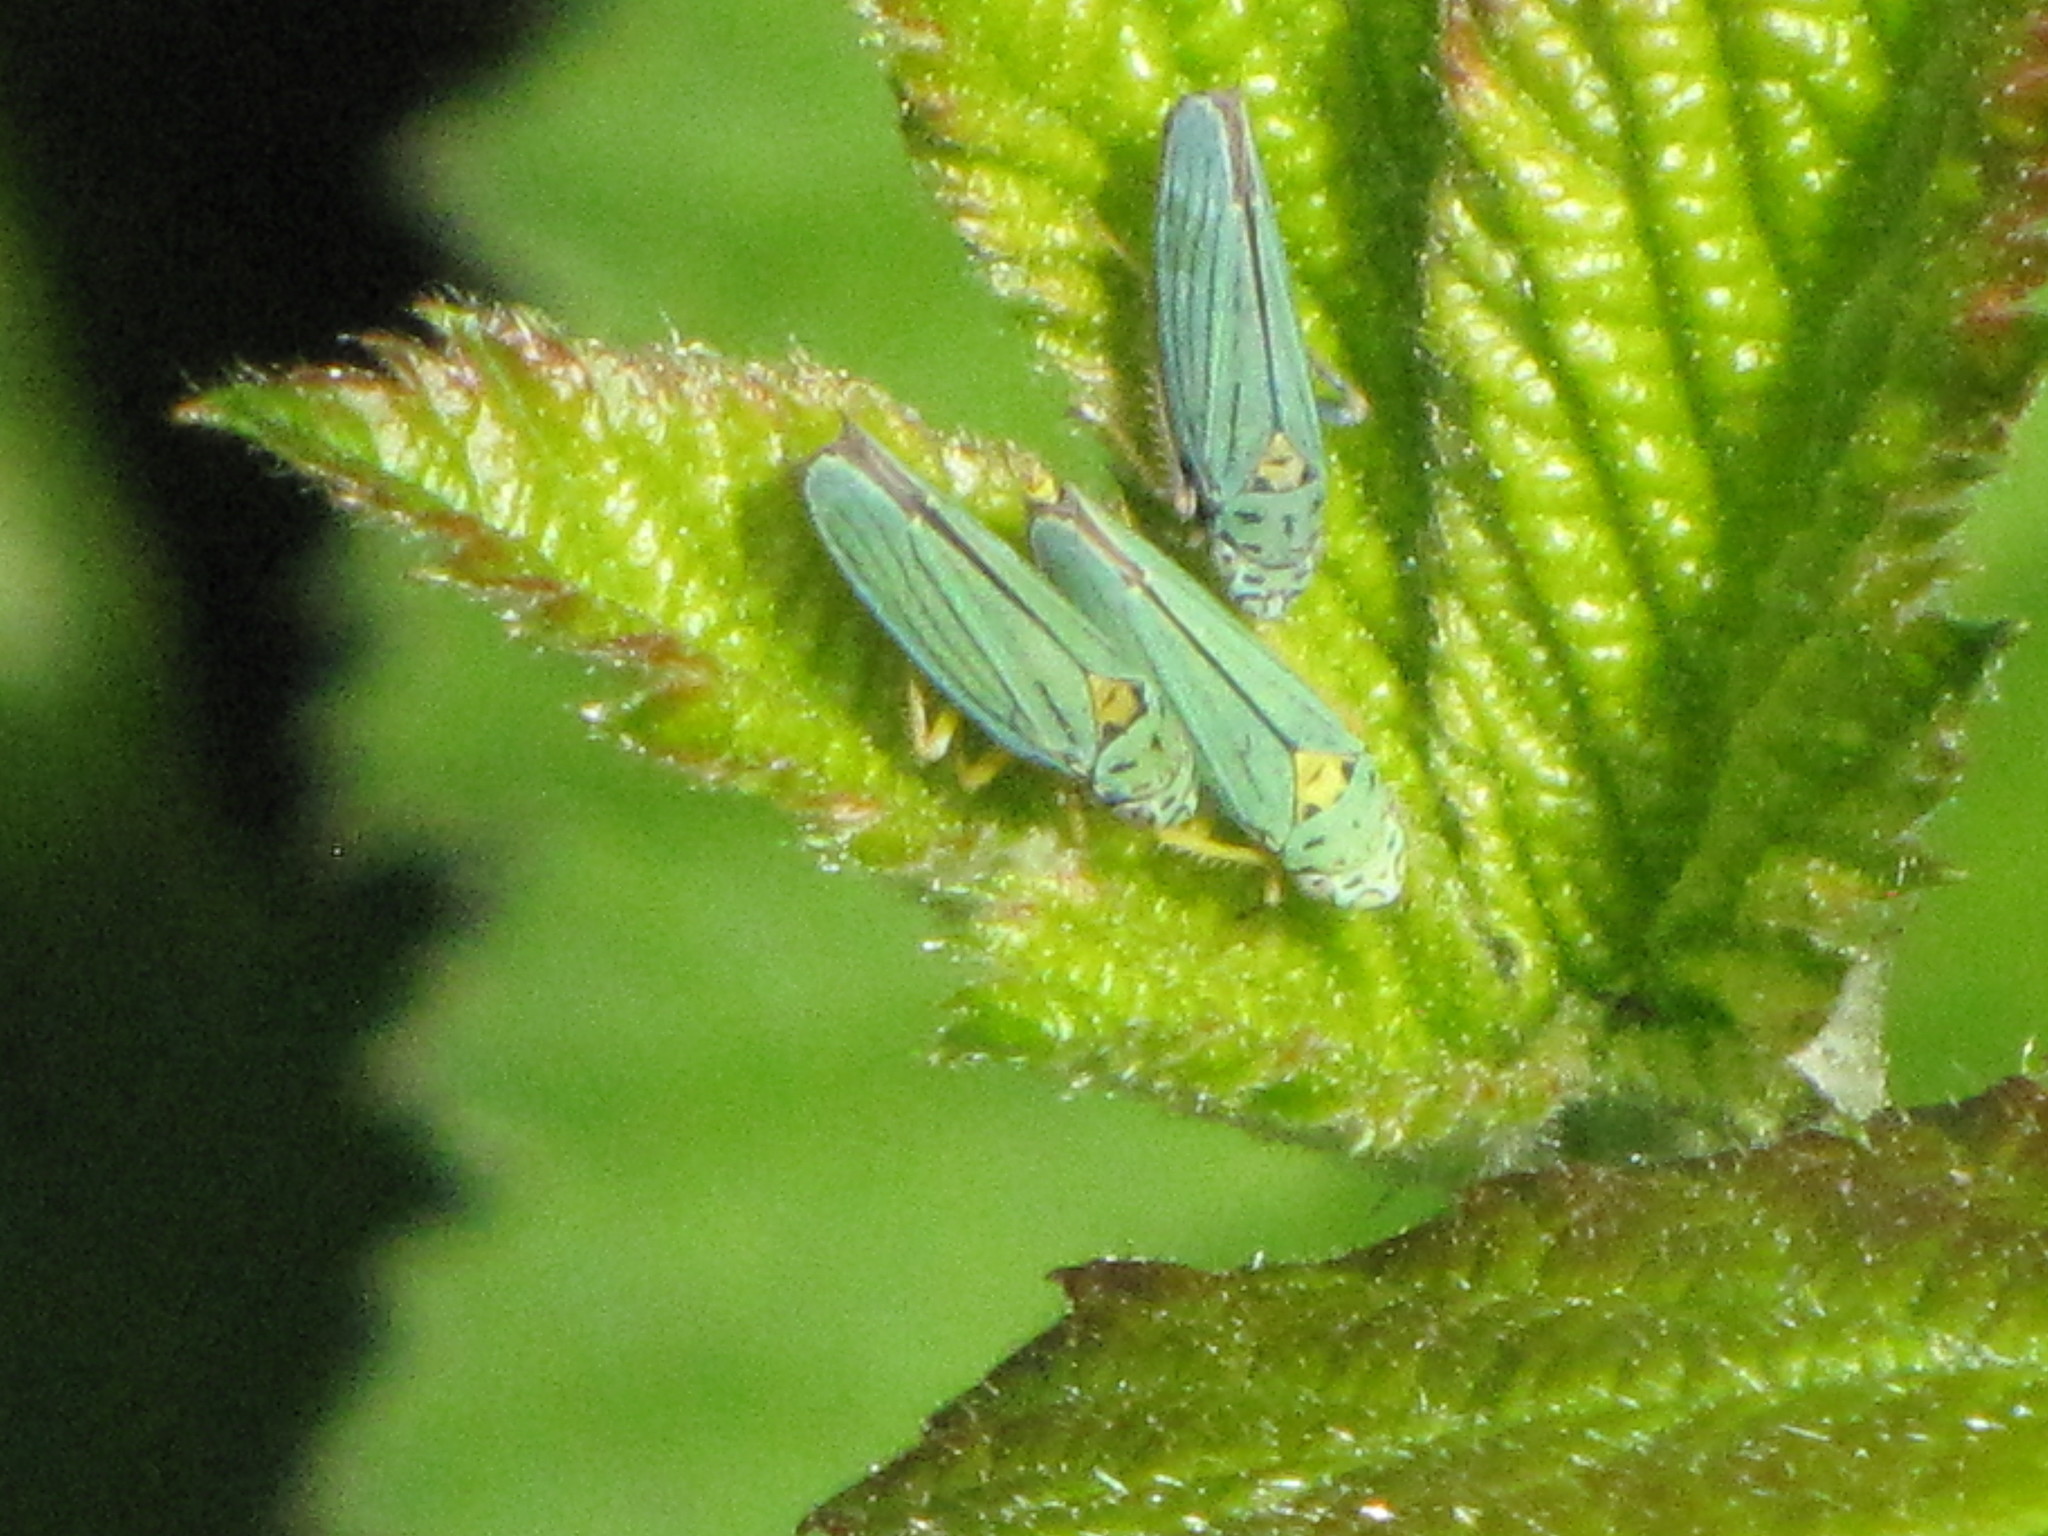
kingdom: Animalia
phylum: Arthropoda
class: Insecta
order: Hemiptera
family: Cicadellidae
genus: Graphocephala
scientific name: Graphocephala atropunctata
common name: Blue-green sharpshooter
